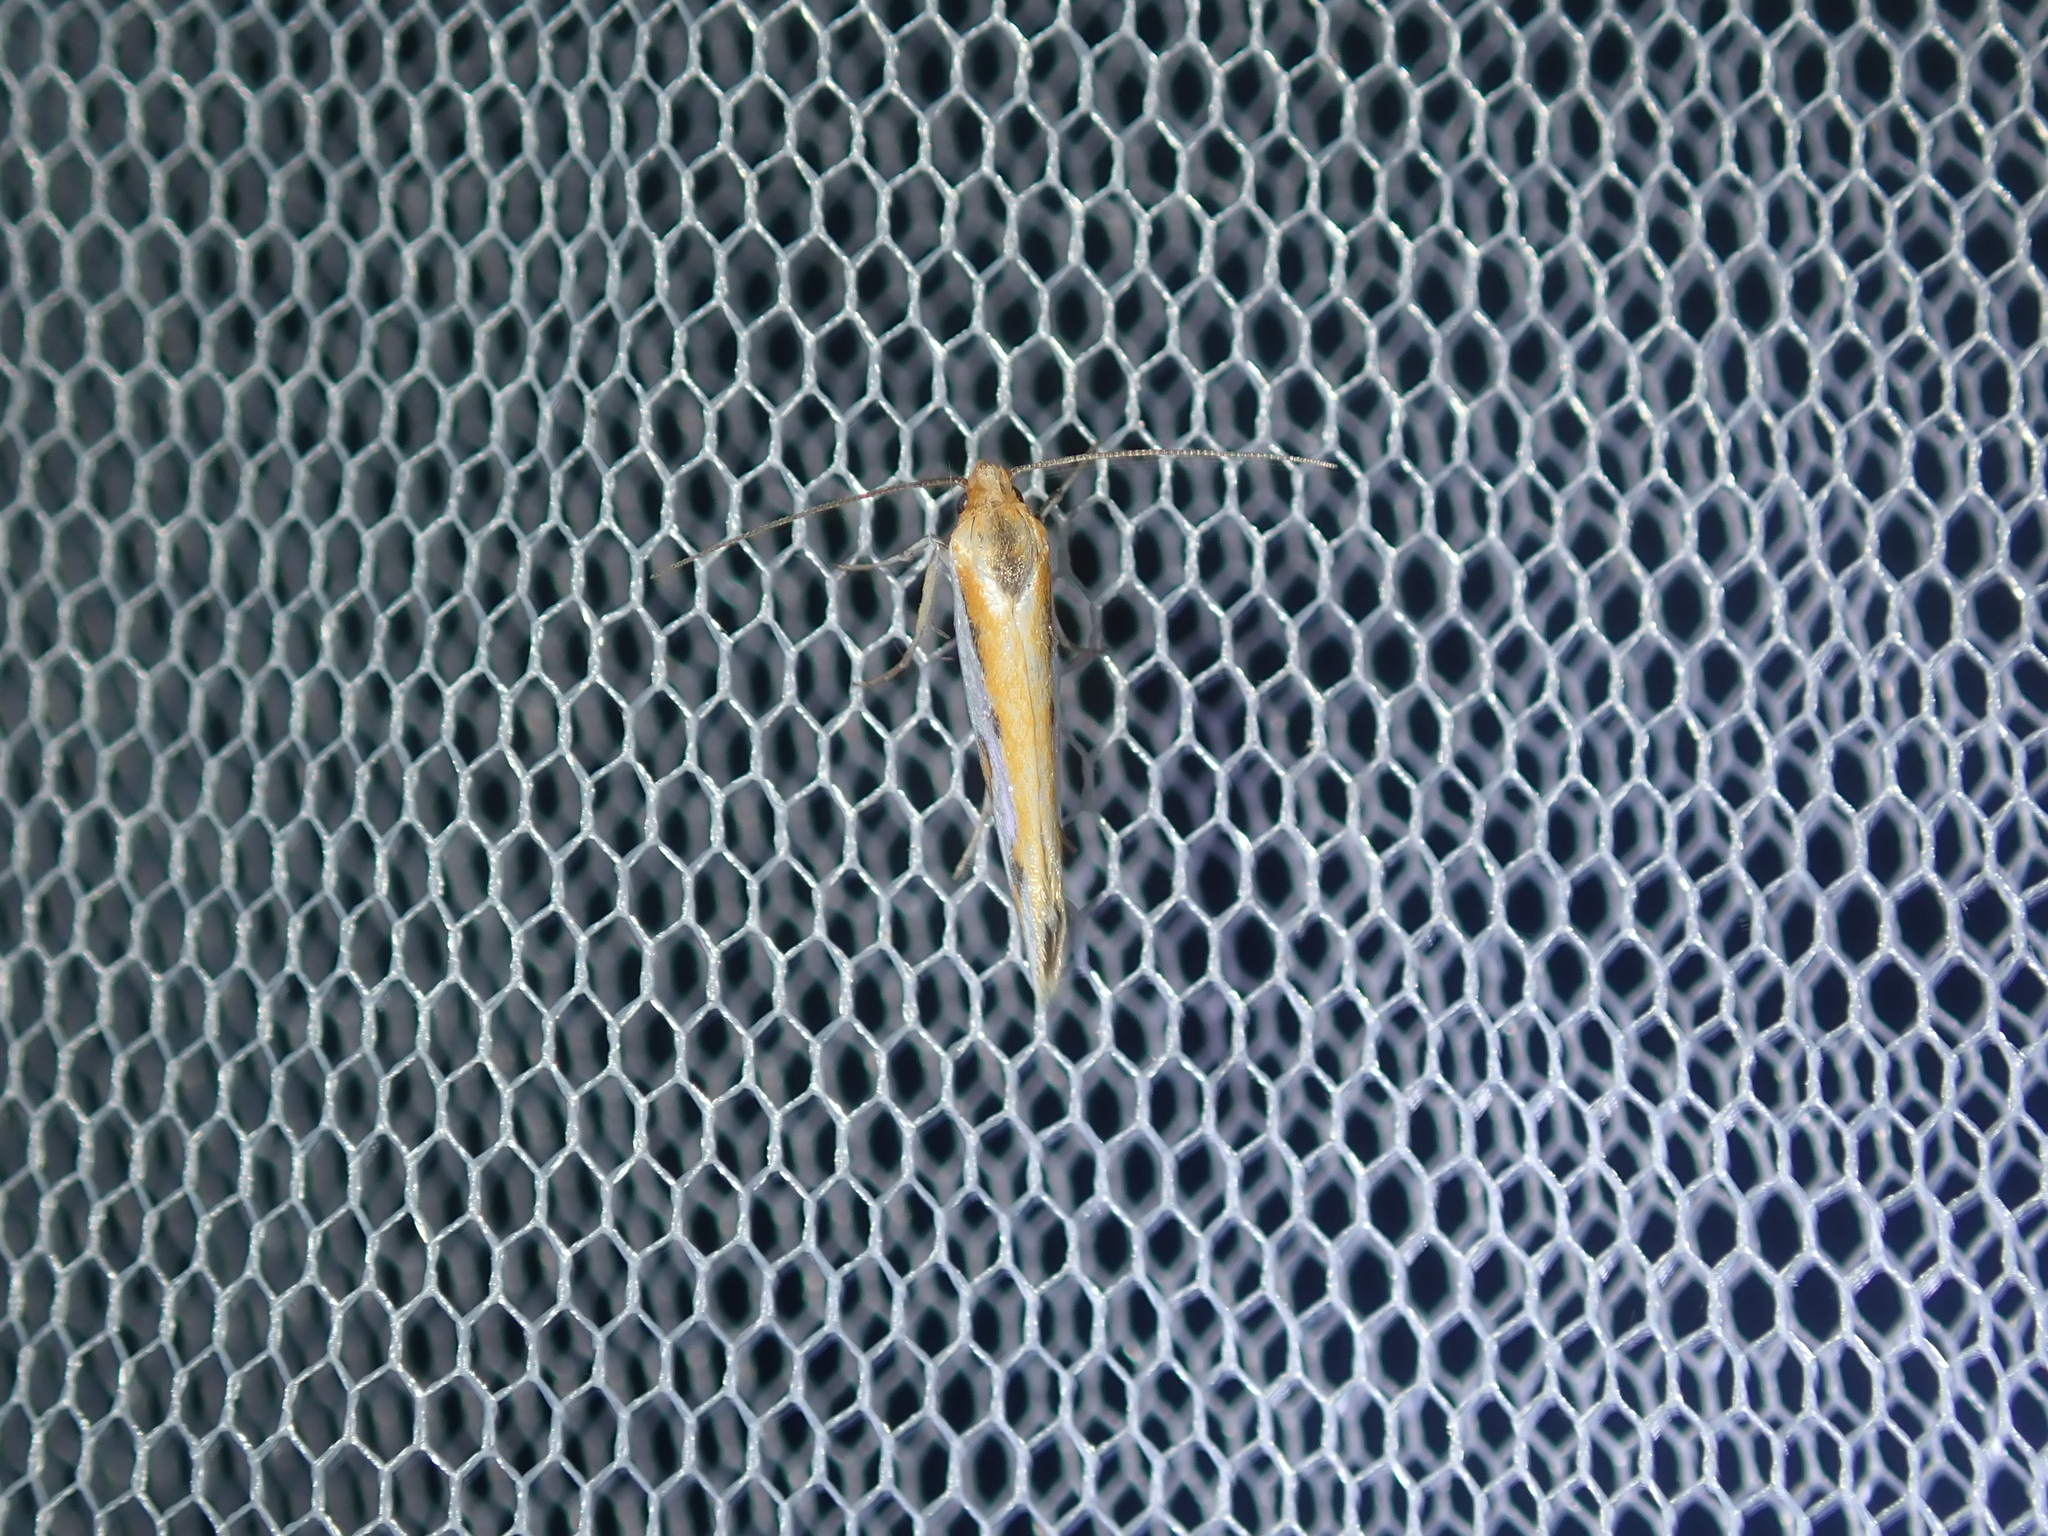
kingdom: Animalia
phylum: Arthropoda
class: Insecta
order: Lepidoptera
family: Depressariidae
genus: Thudaca
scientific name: Thudaca haplonota
